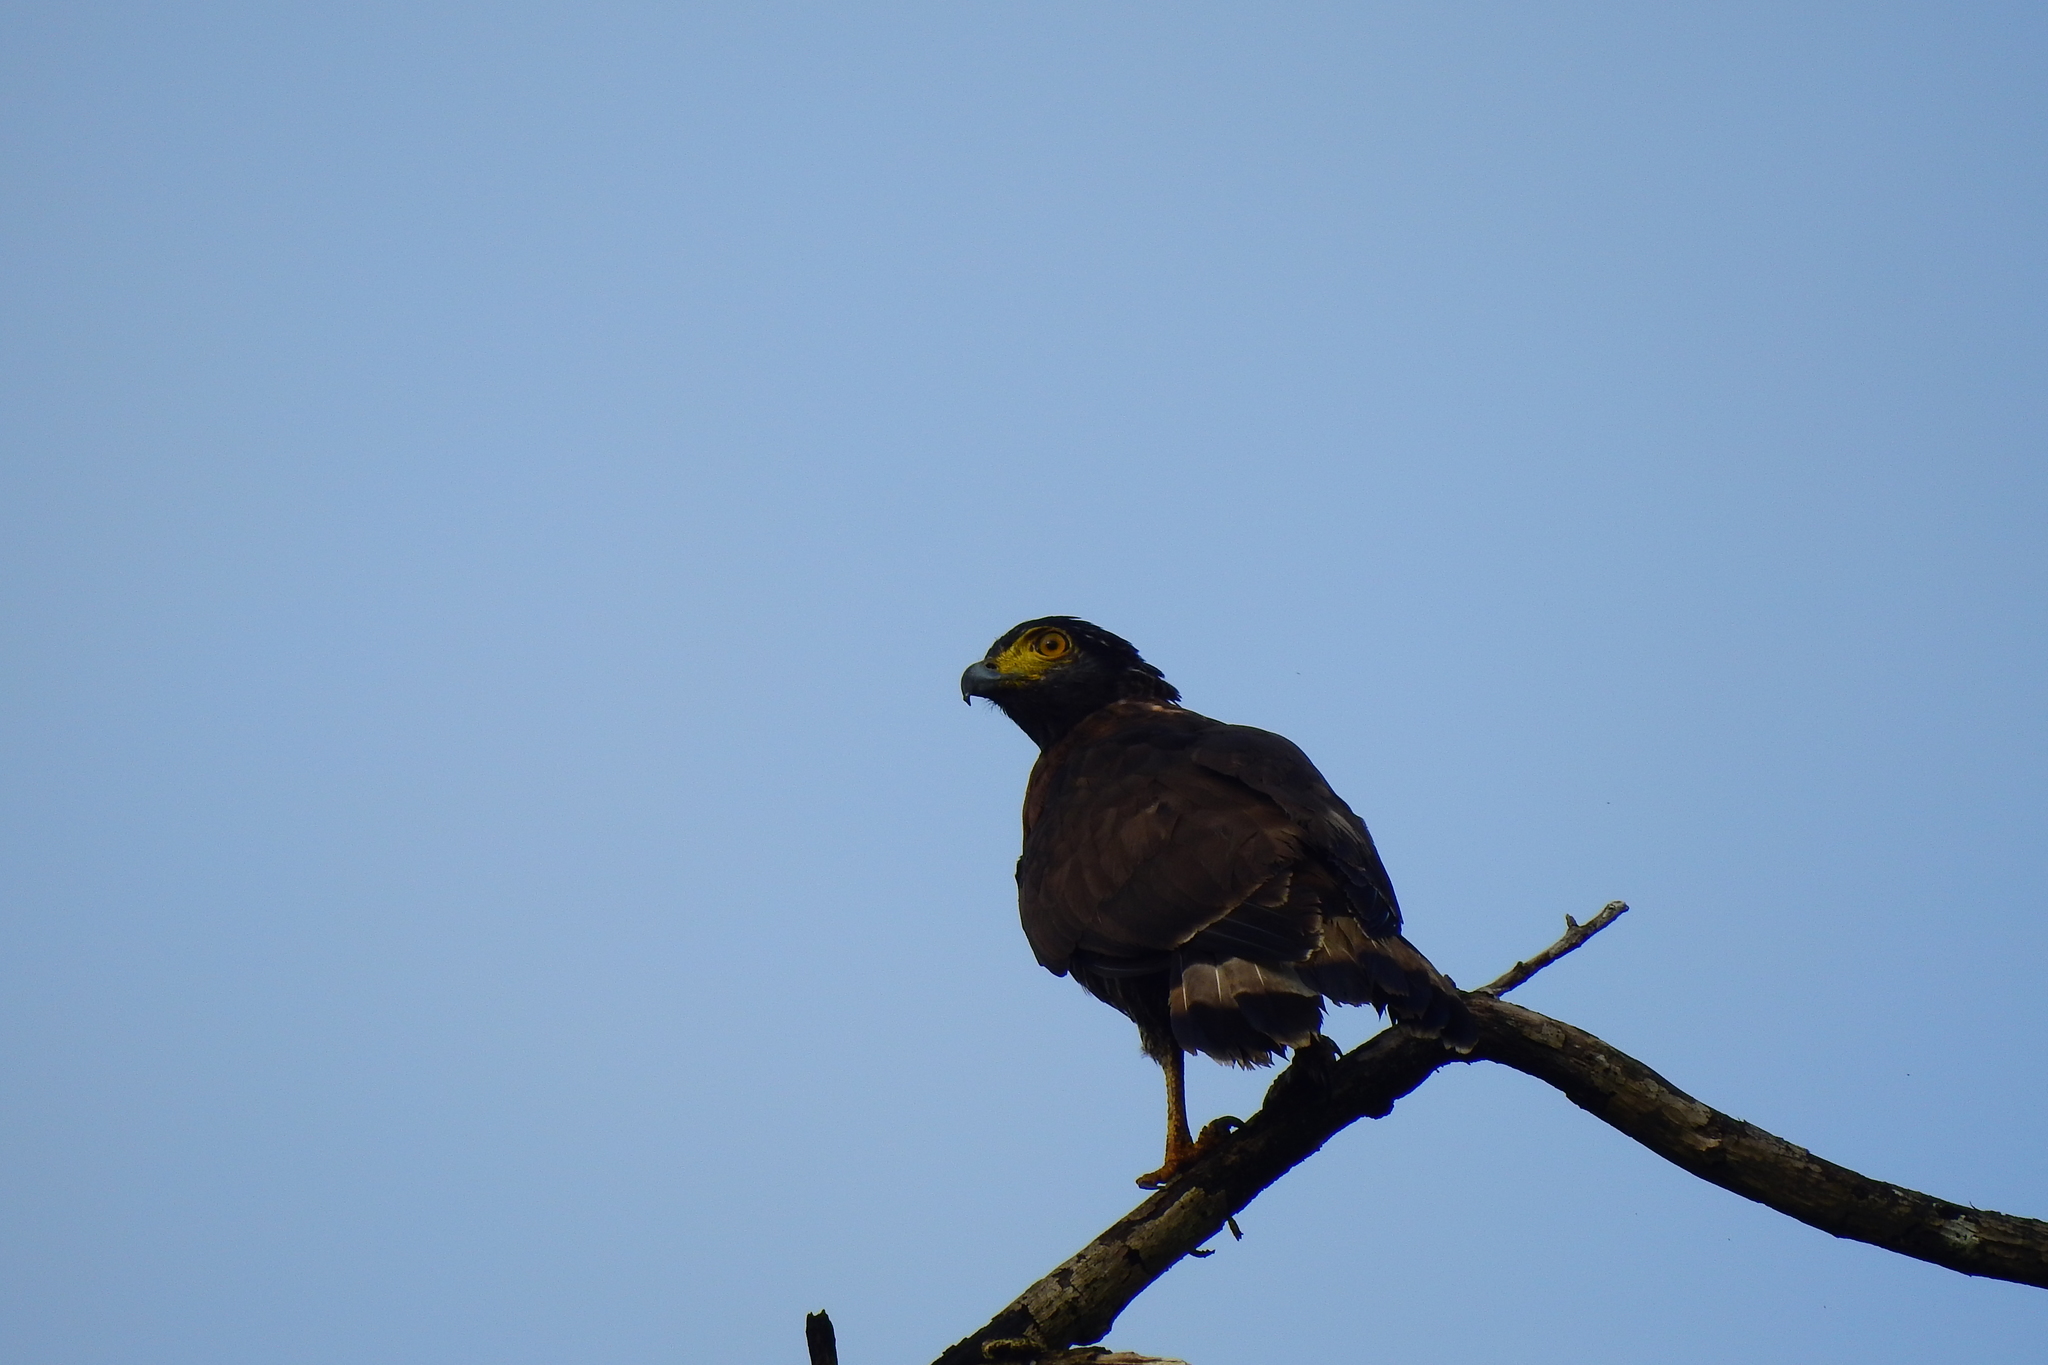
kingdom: Animalia
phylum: Chordata
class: Aves
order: Accipitriformes
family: Accipitridae
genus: Spilornis
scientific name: Spilornis rufipectus
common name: Sulawesi serpent eagle
